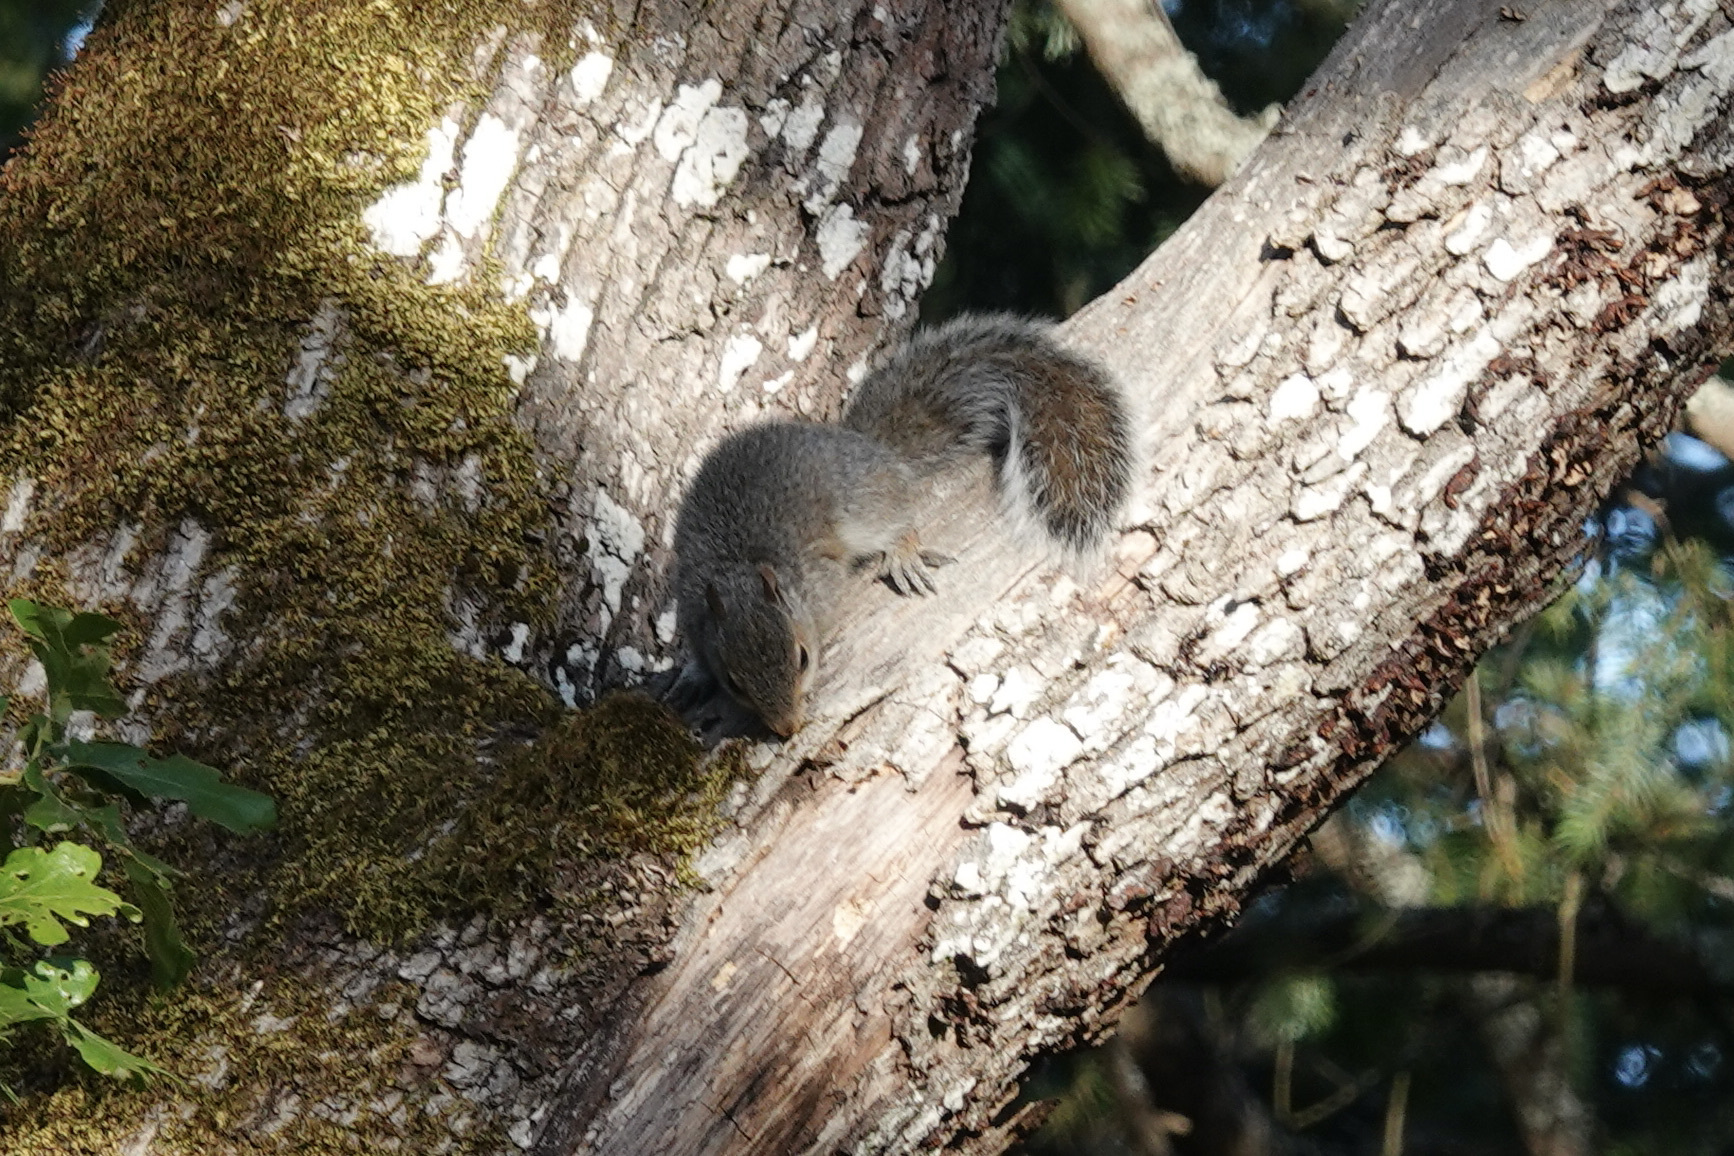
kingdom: Animalia
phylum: Chordata
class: Mammalia
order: Rodentia
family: Sciuridae
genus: Sciurus
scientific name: Sciurus carolinensis
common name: Eastern gray squirrel
